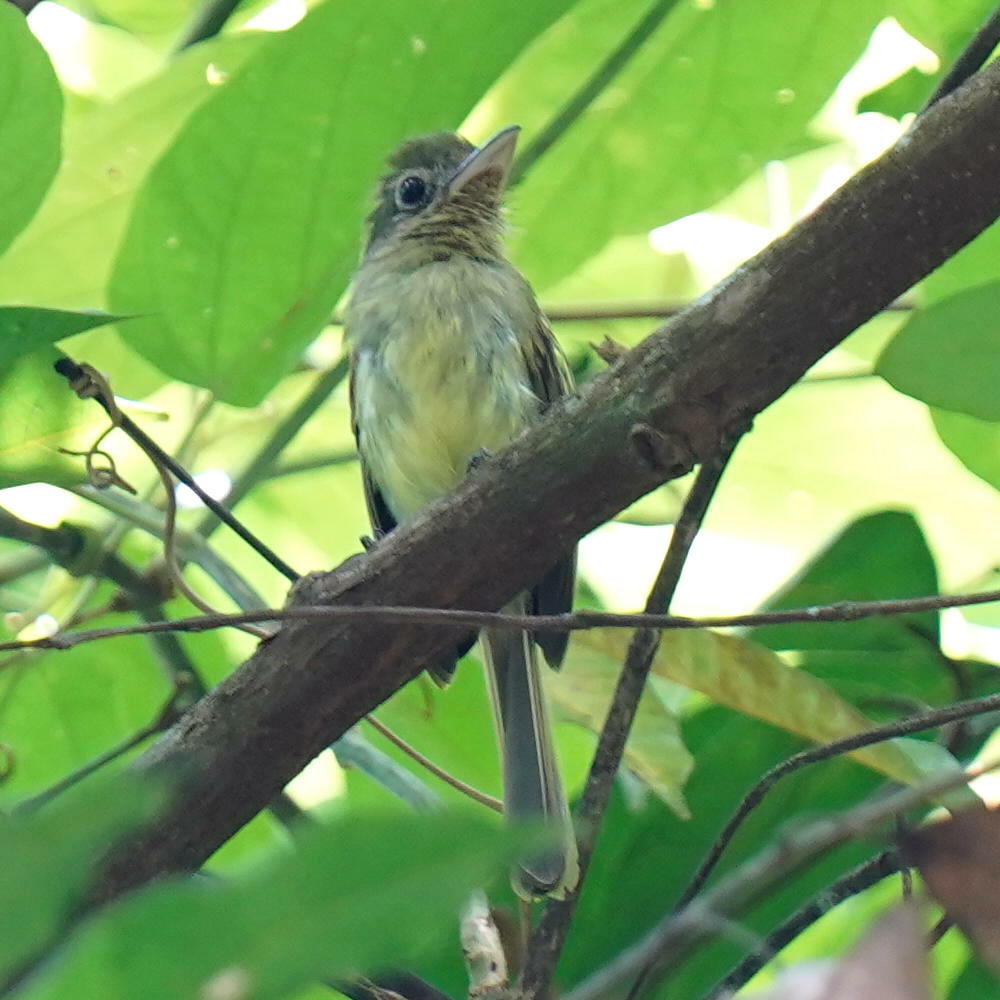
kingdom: Animalia
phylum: Chordata
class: Aves
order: Passeriformes
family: Tyrannidae
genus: Rhynchocyclus
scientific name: Rhynchocyclus olivaceus
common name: Olivaceous flatbill
